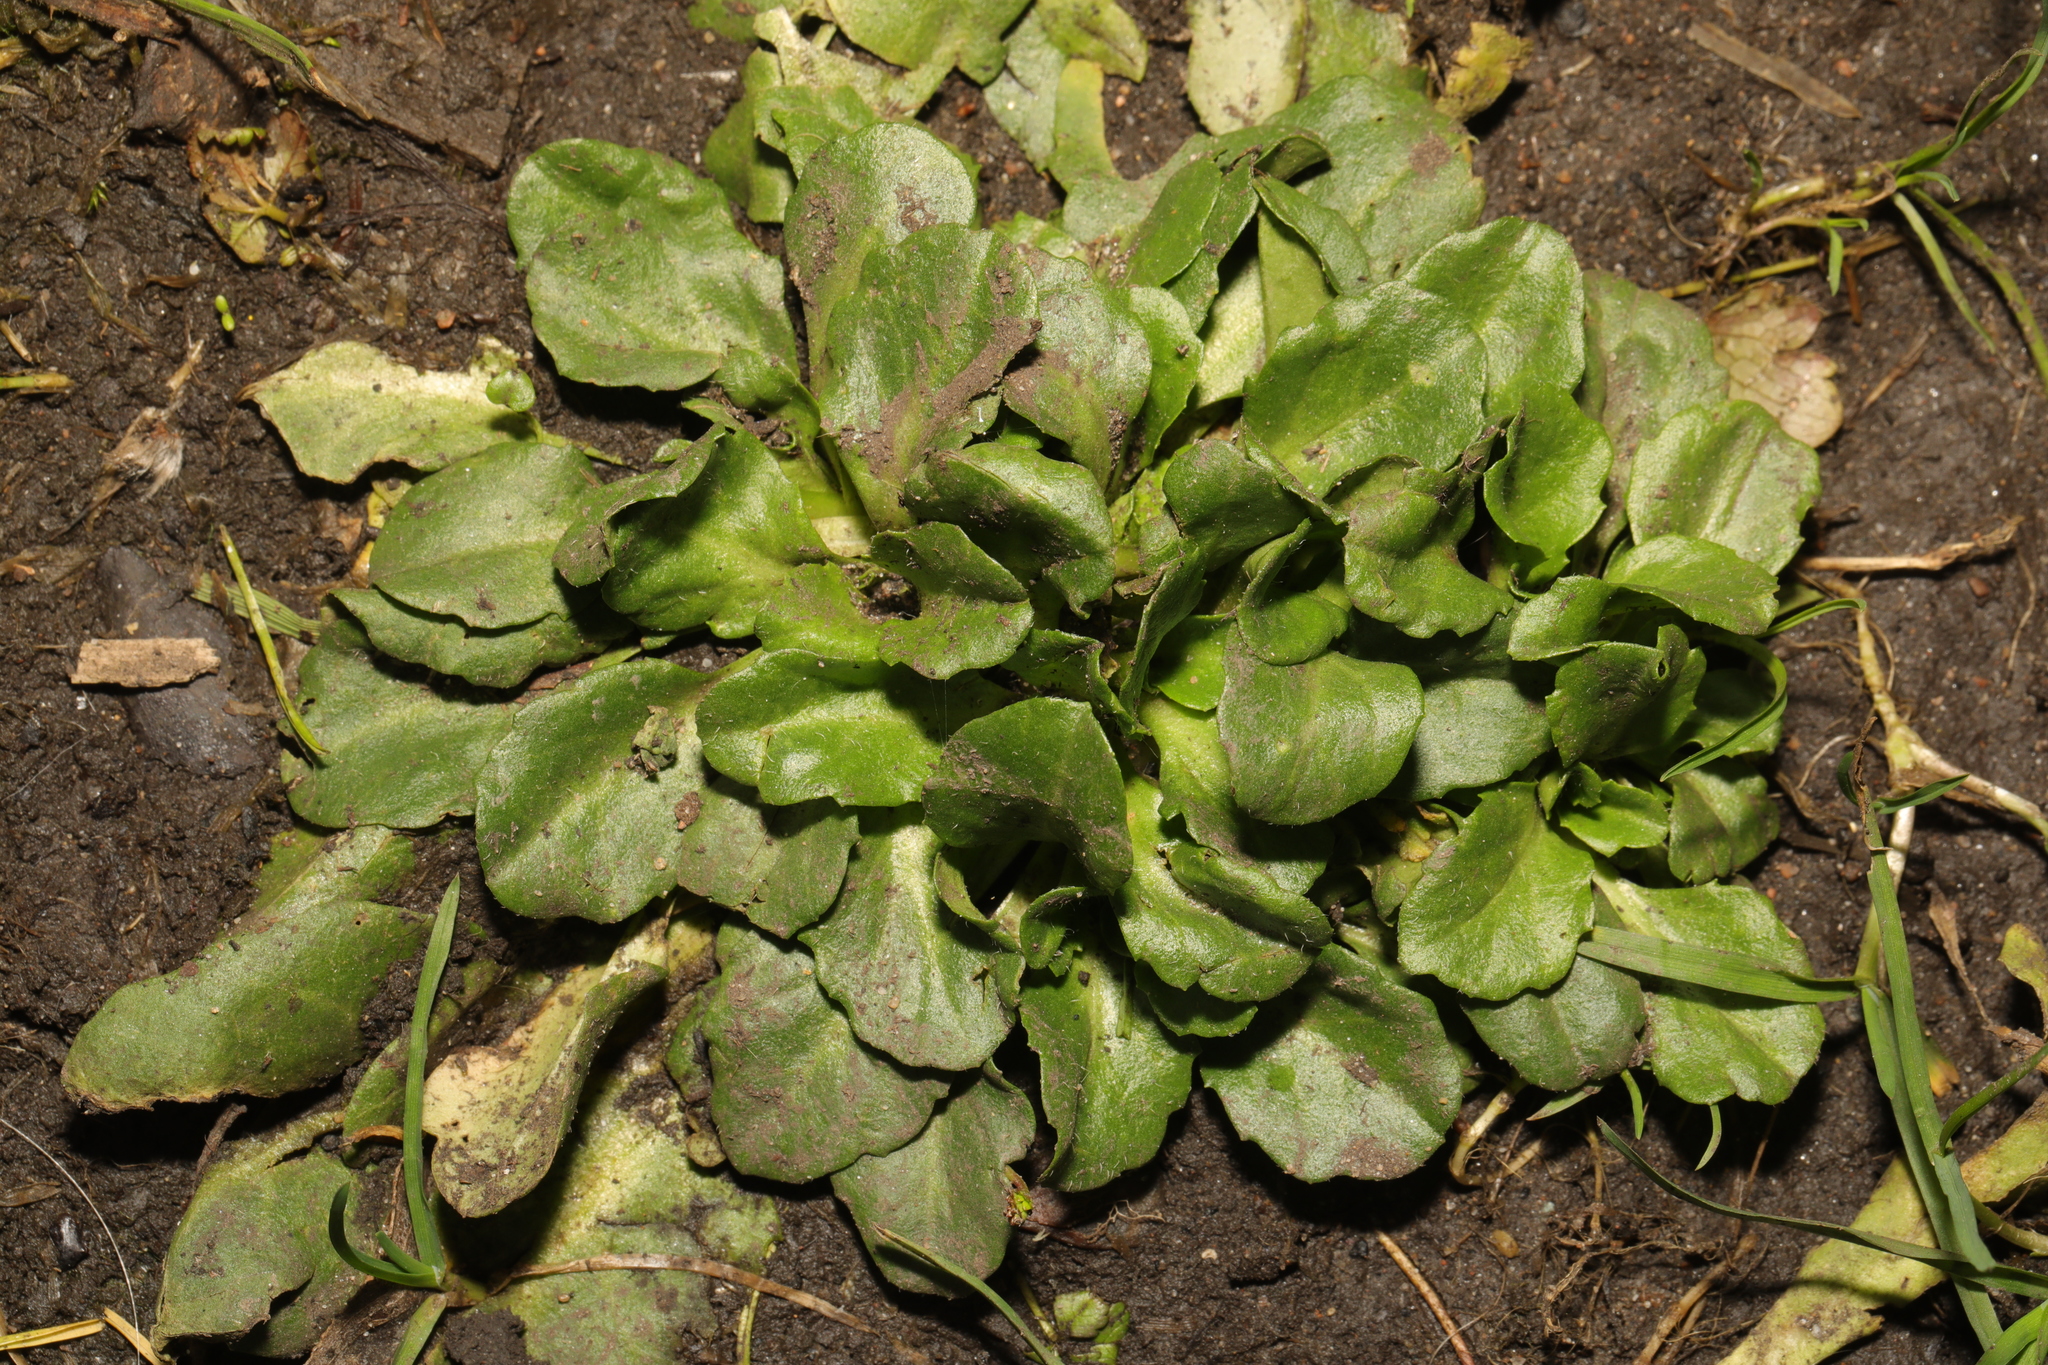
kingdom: Plantae
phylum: Tracheophyta
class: Magnoliopsida
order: Asterales
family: Asteraceae
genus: Bellis
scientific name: Bellis perennis
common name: Lawndaisy
